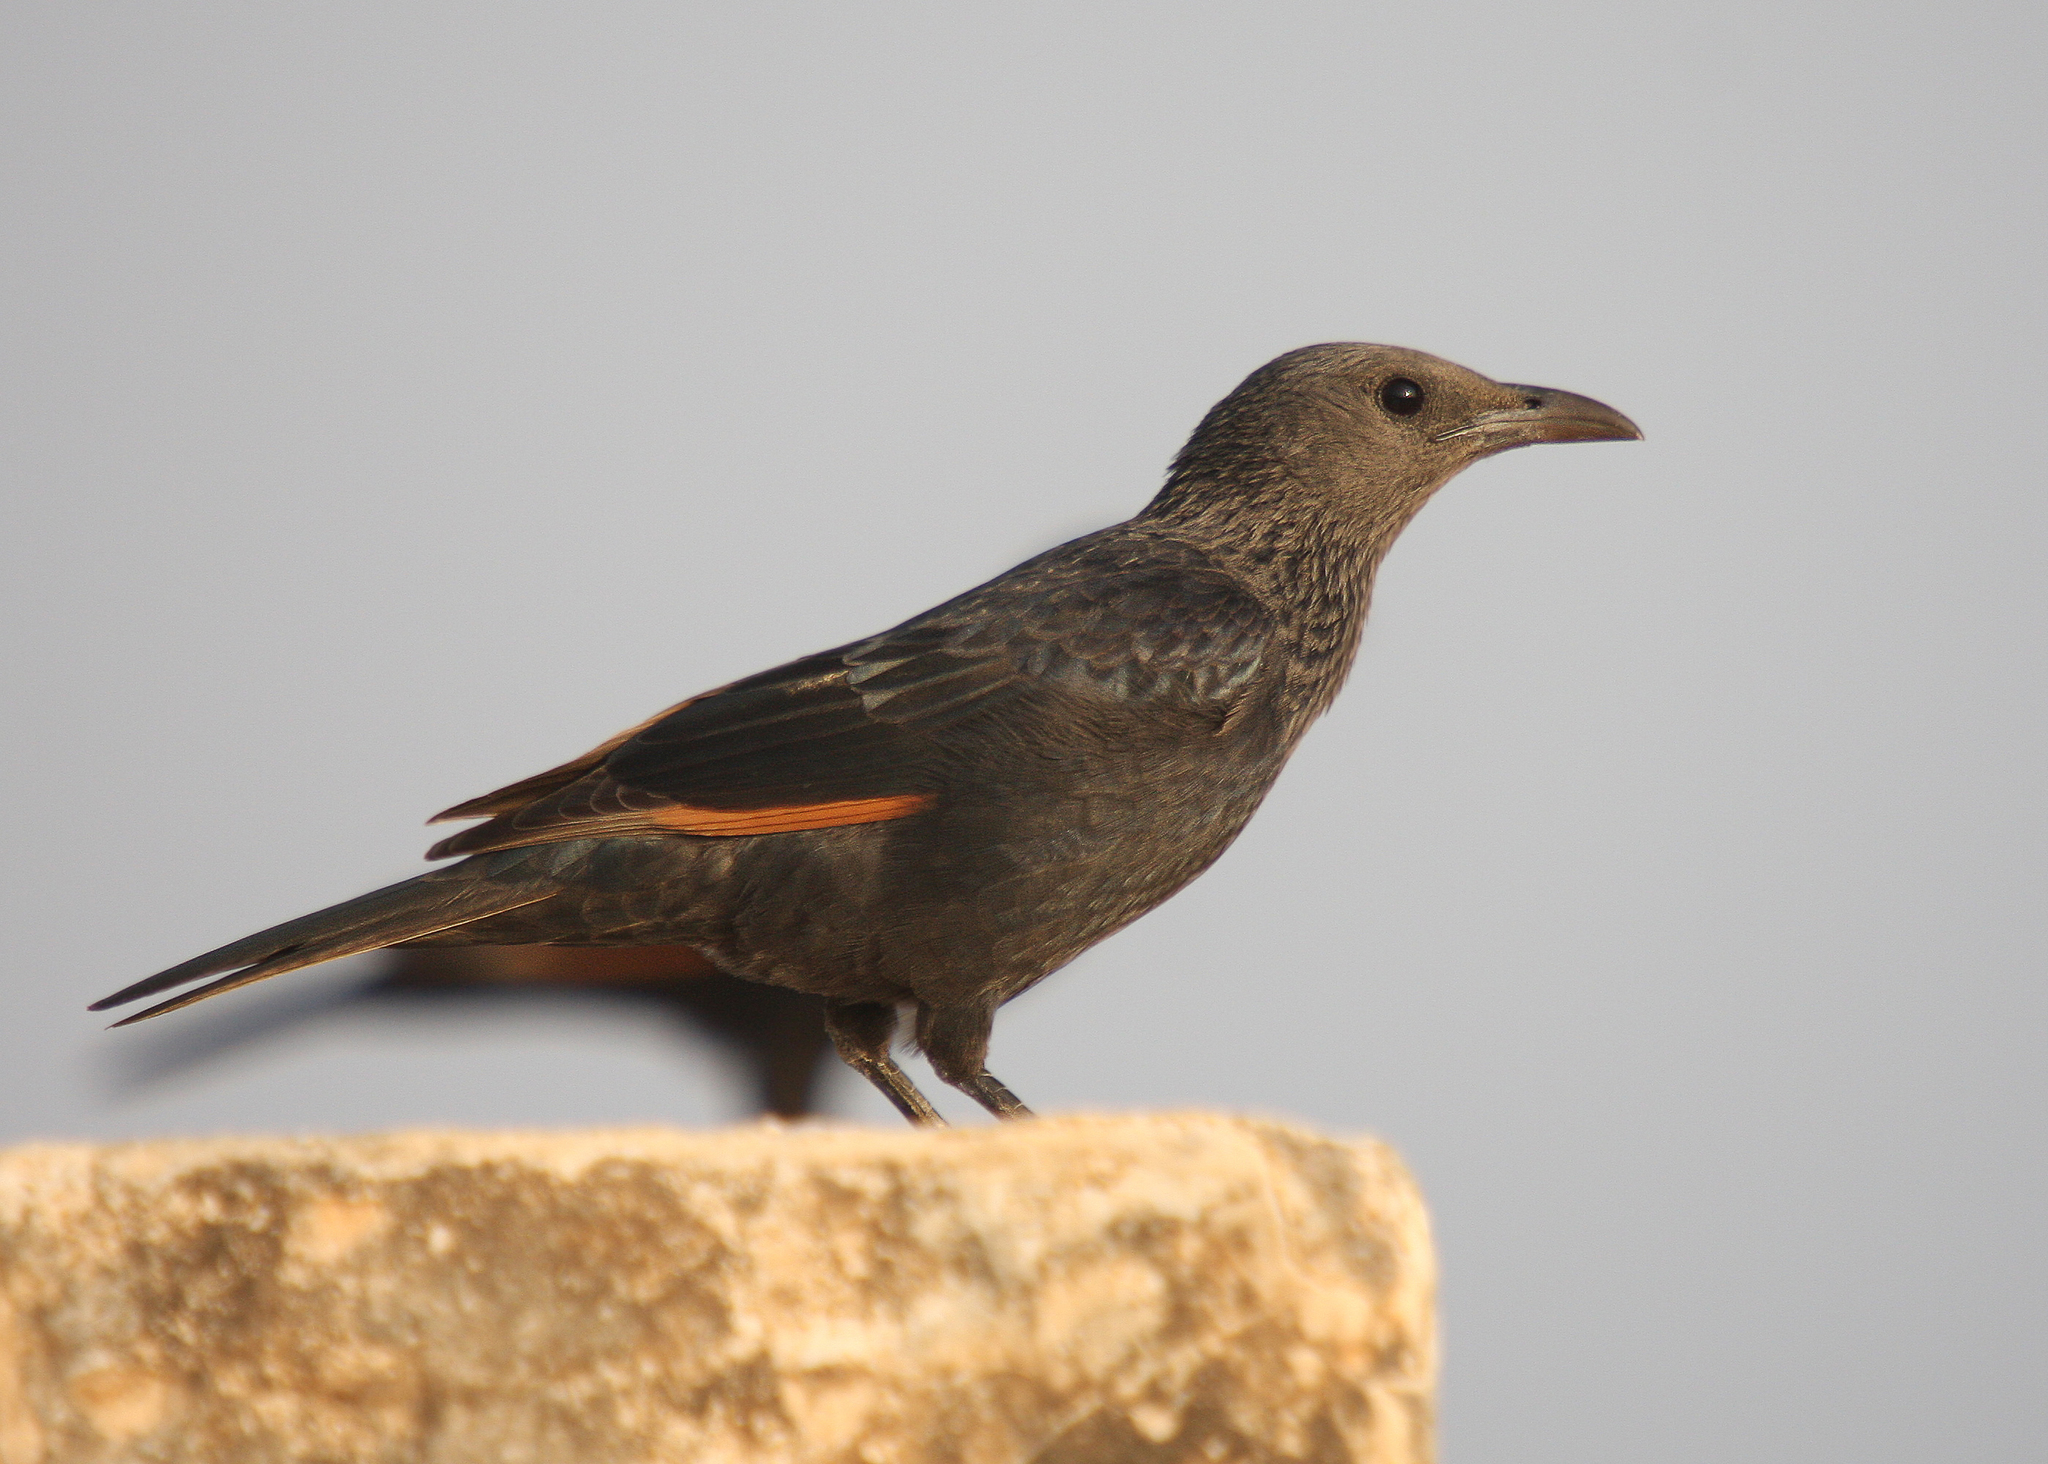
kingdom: Animalia
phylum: Chordata
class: Aves
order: Passeriformes
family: Sturnidae
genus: Onychognathus
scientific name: Onychognathus tristramii
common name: Tristram's starling
